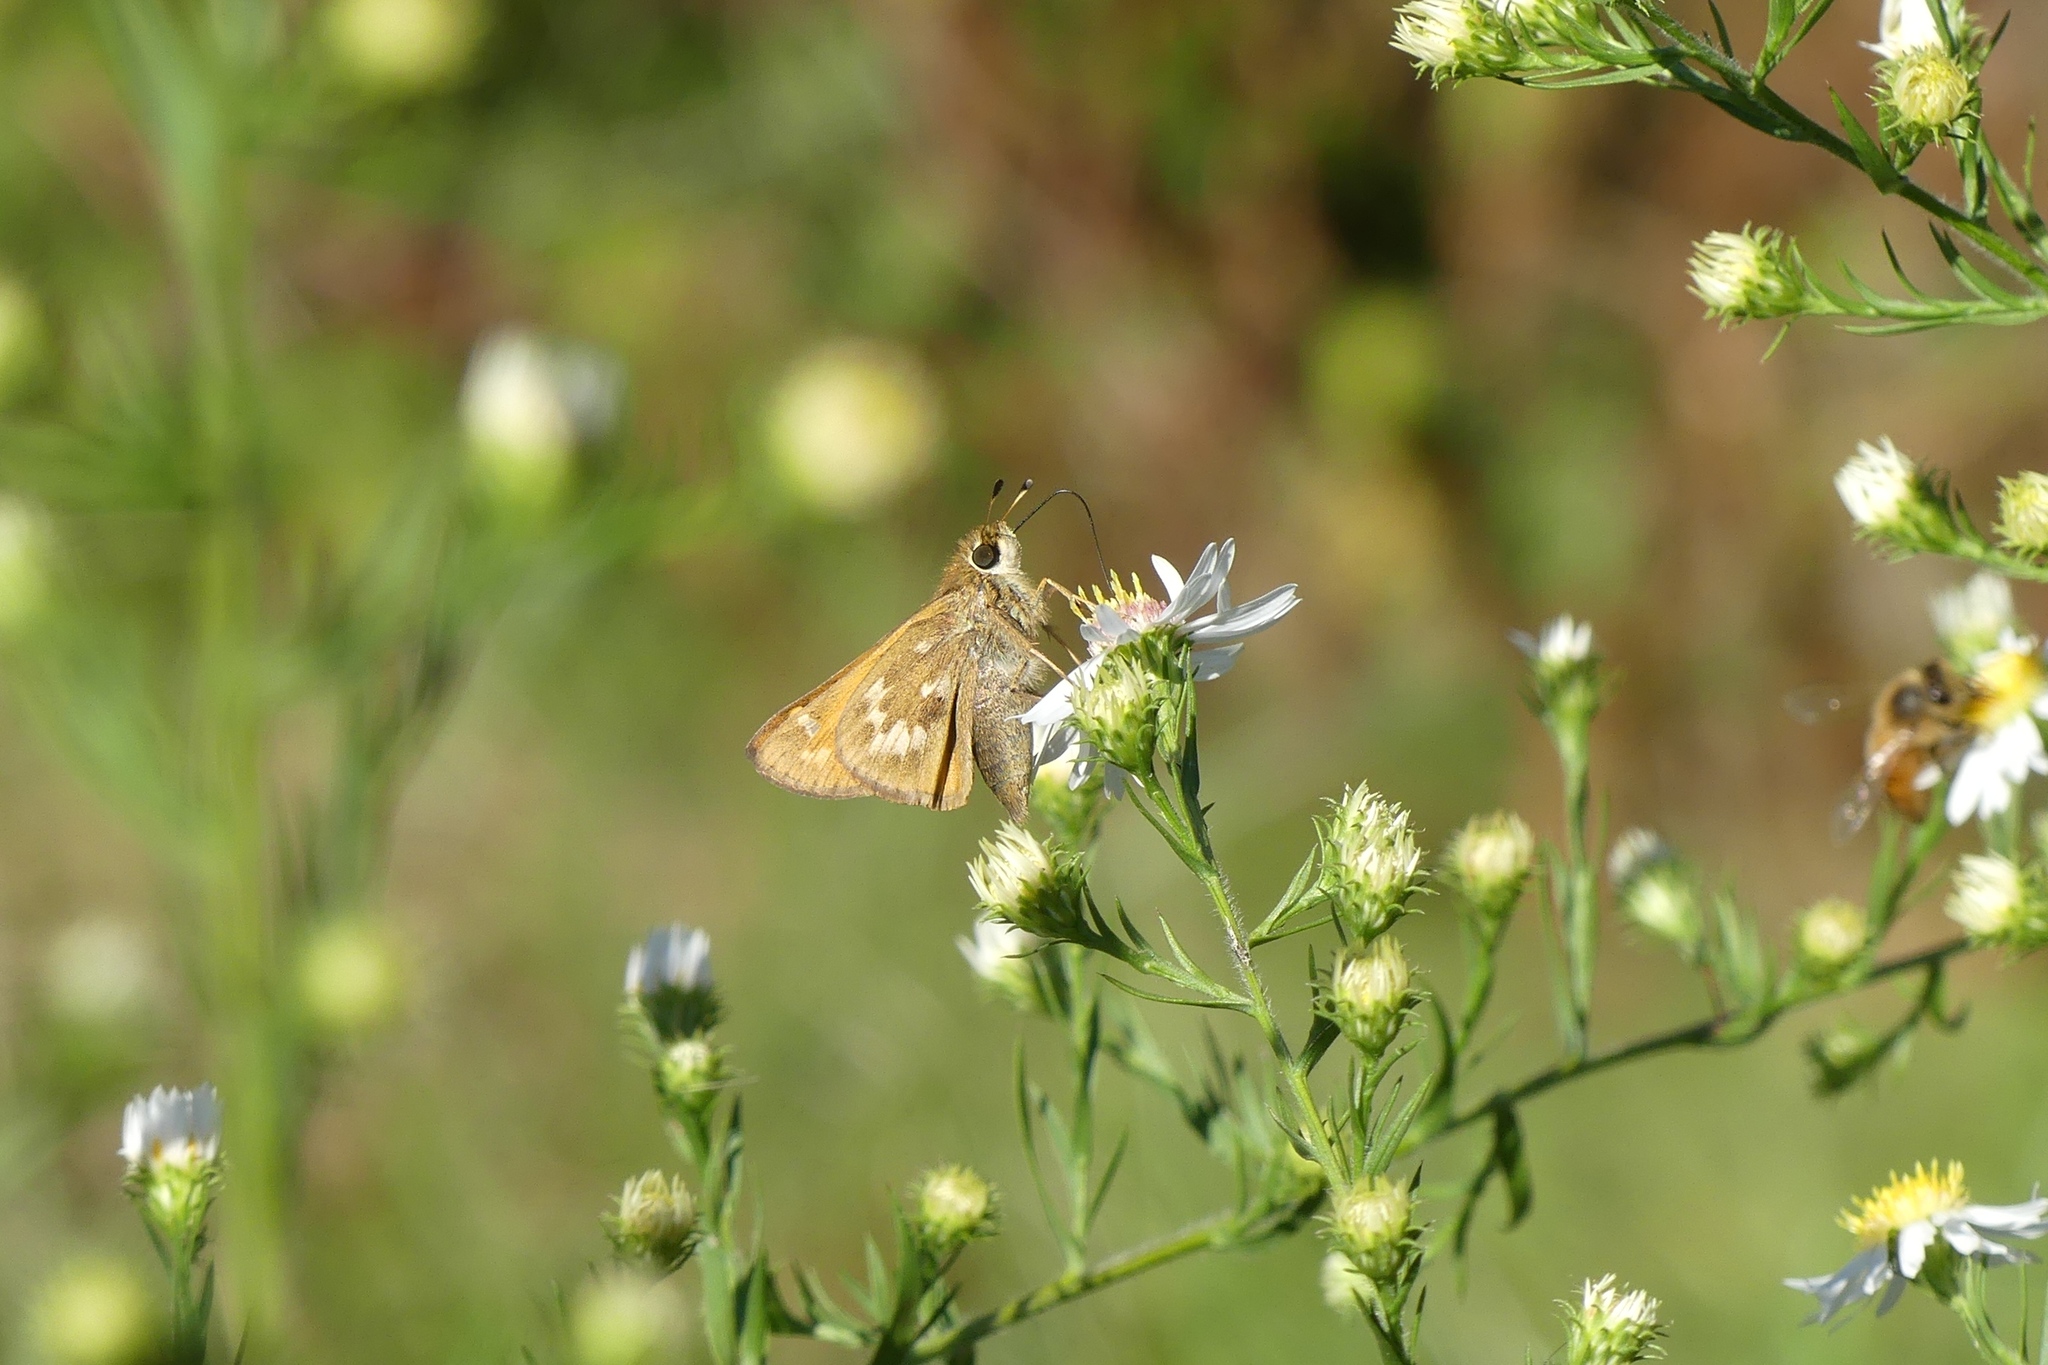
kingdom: Animalia
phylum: Arthropoda
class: Insecta
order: Lepidoptera
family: Hesperiidae
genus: Atalopedes
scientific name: Atalopedes
